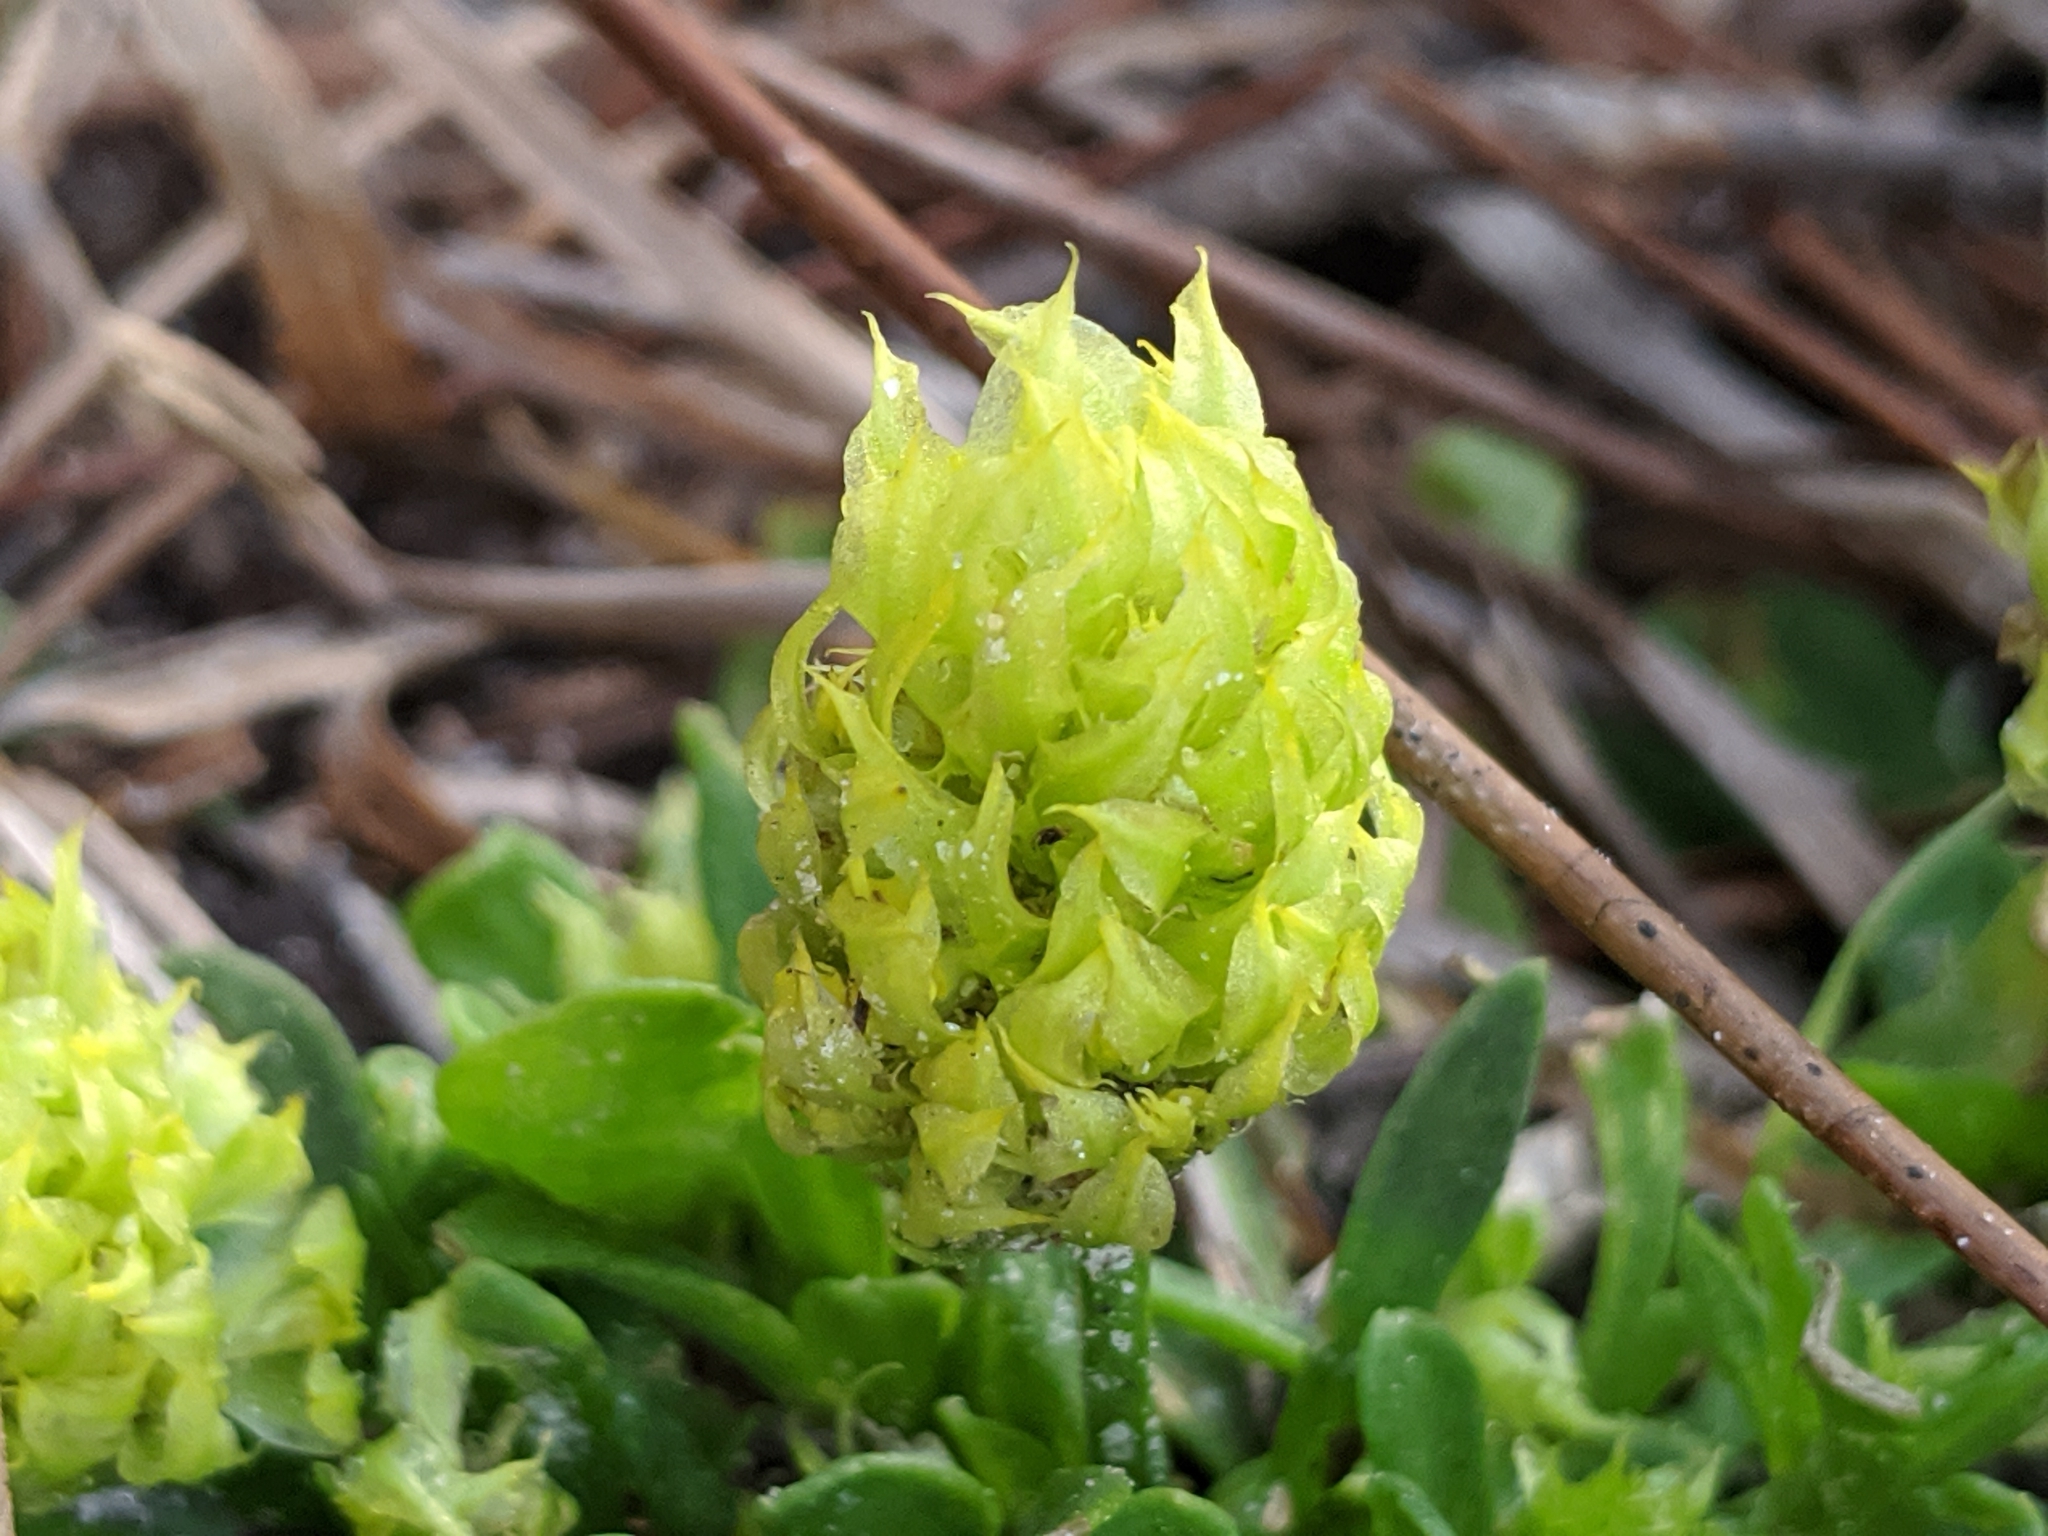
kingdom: Plantae
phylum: Tracheophyta
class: Magnoliopsida
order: Fabales
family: Polygalaceae
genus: Polygala
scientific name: Polygala nana
